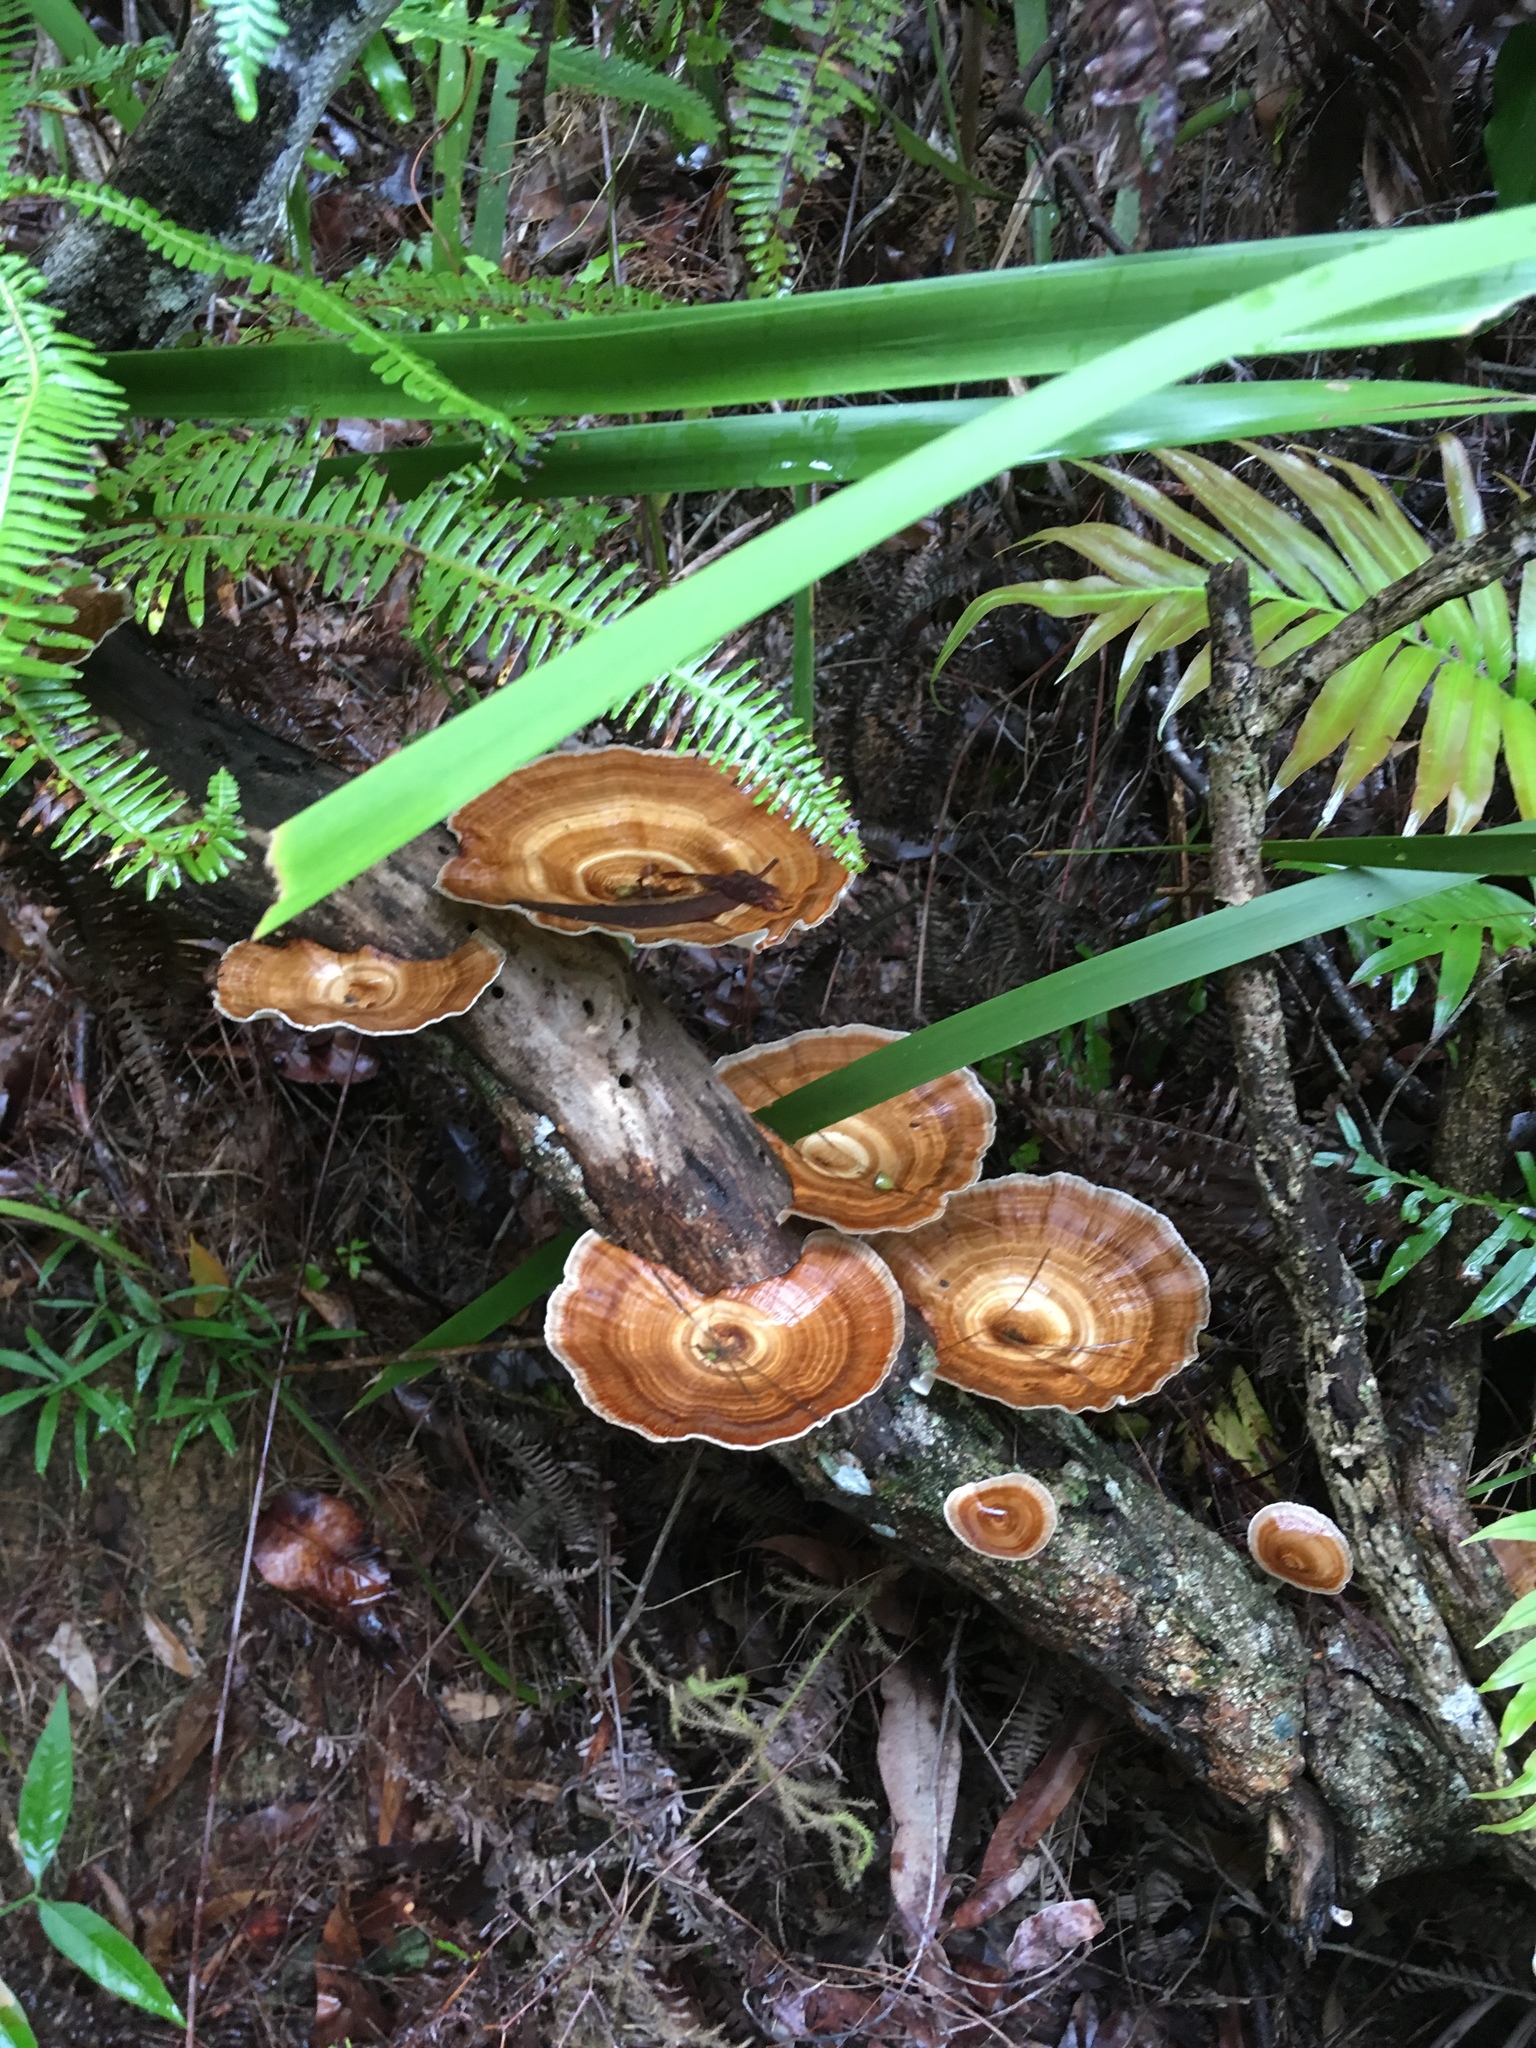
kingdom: Fungi
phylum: Basidiomycota
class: Agaricomycetes
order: Polyporales
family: Polyporaceae
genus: Microporus
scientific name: Microporus xanthopus
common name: Yellow-stemmed micropore
